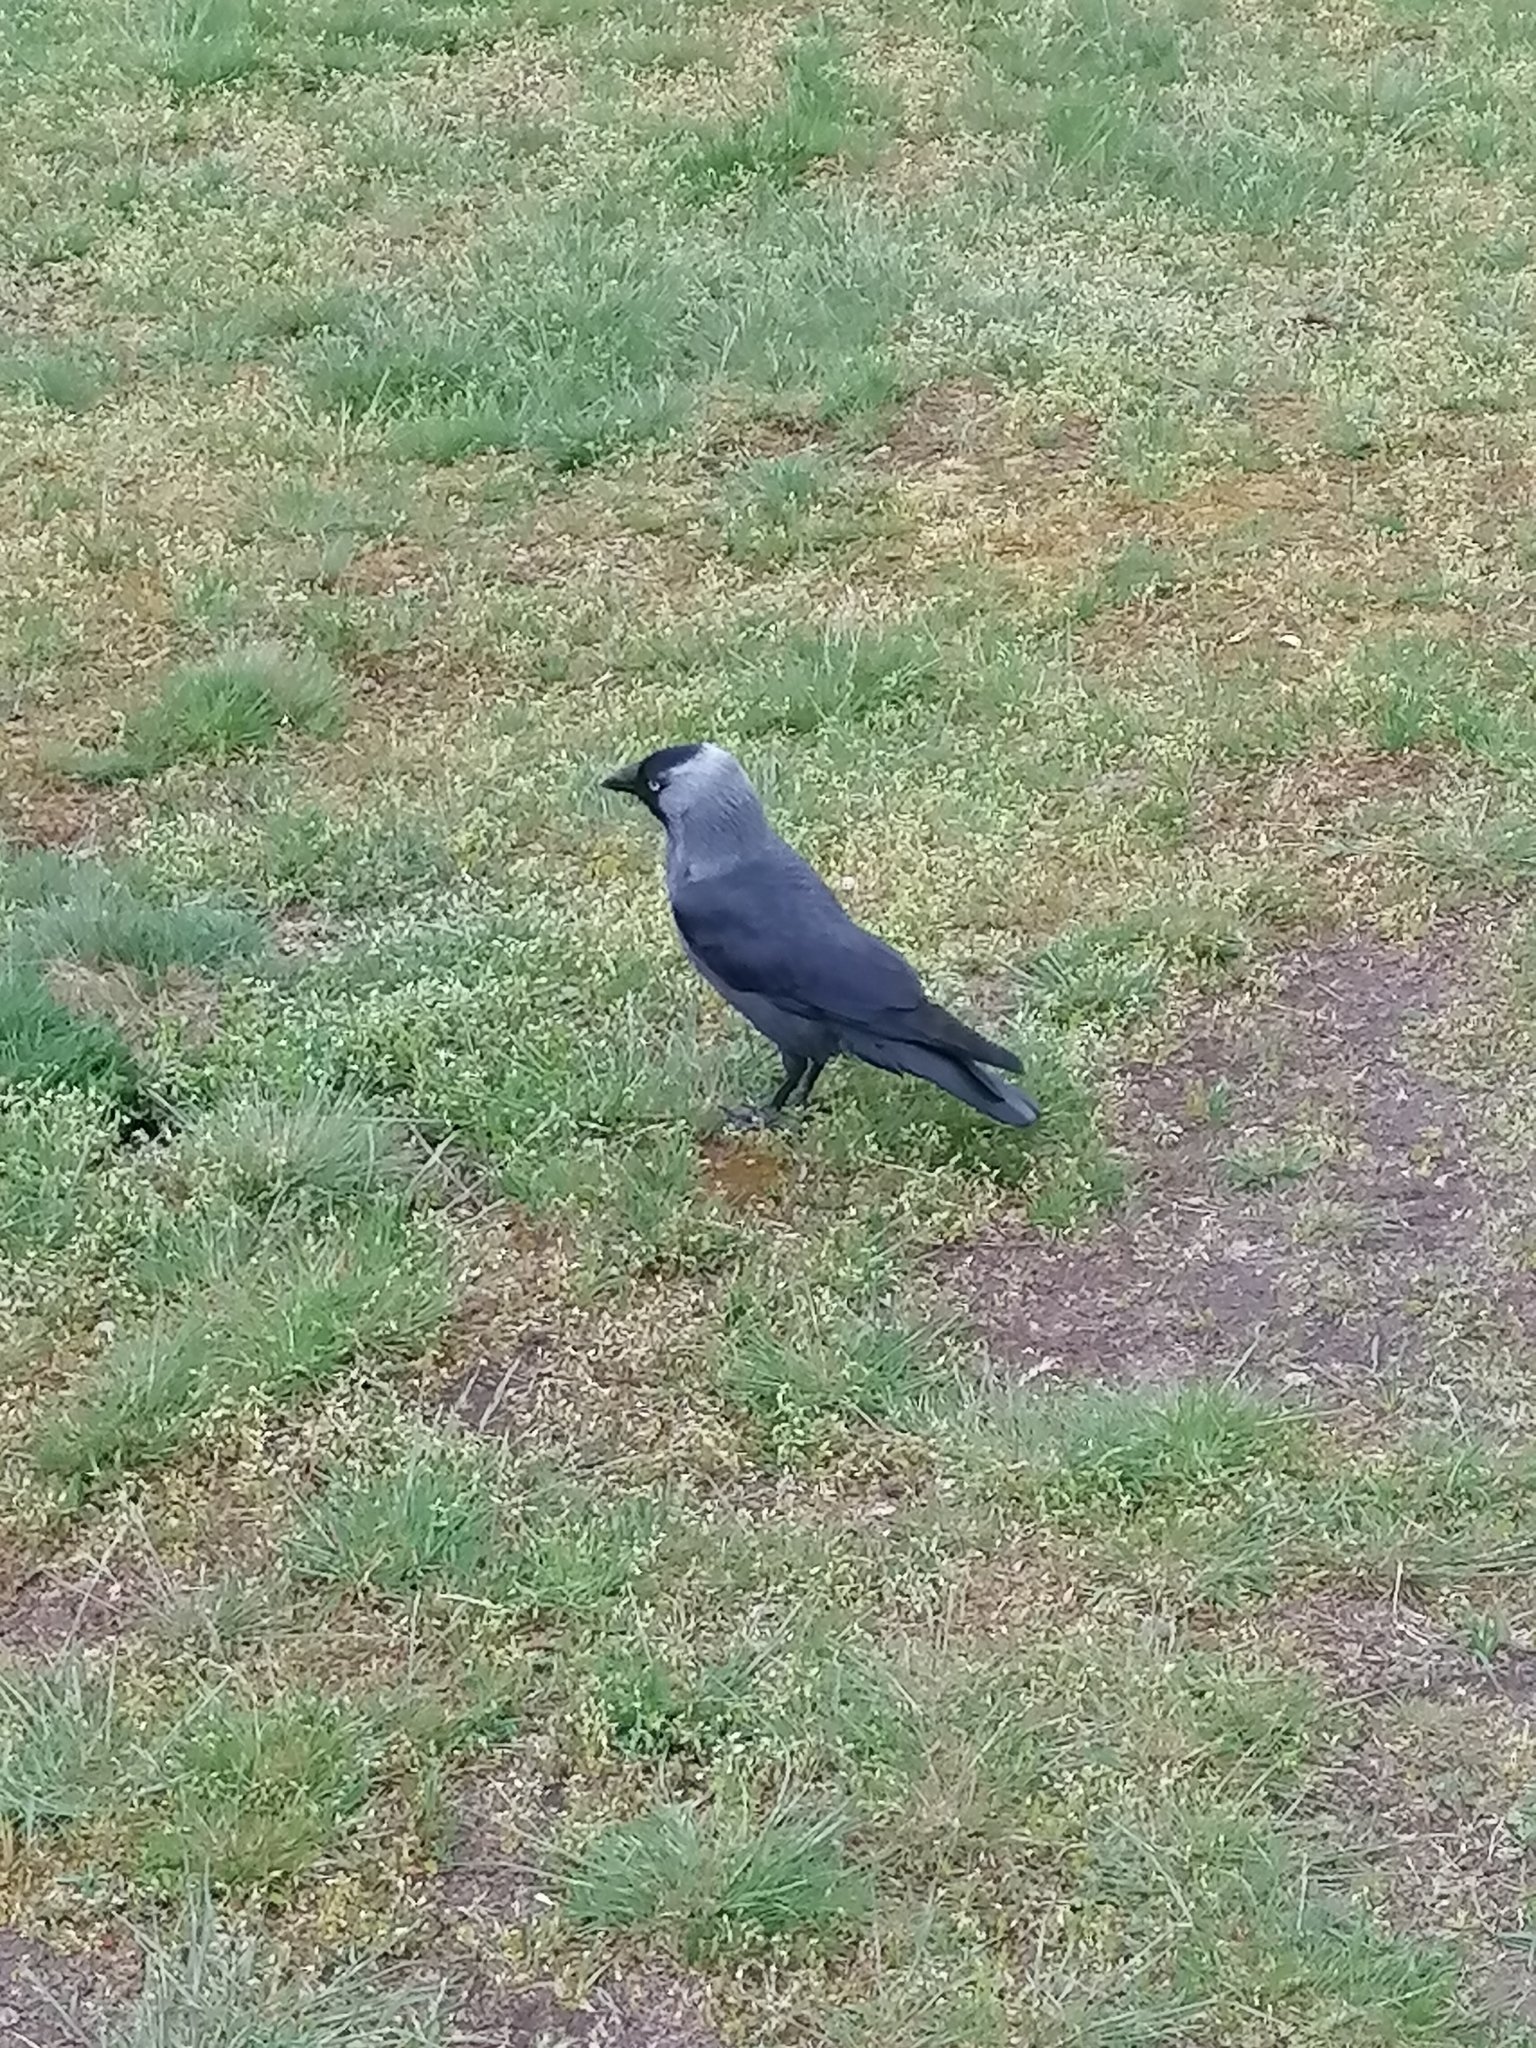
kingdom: Animalia
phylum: Chordata
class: Aves
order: Passeriformes
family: Corvidae
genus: Coloeus
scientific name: Coloeus monedula
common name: Western jackdaw
